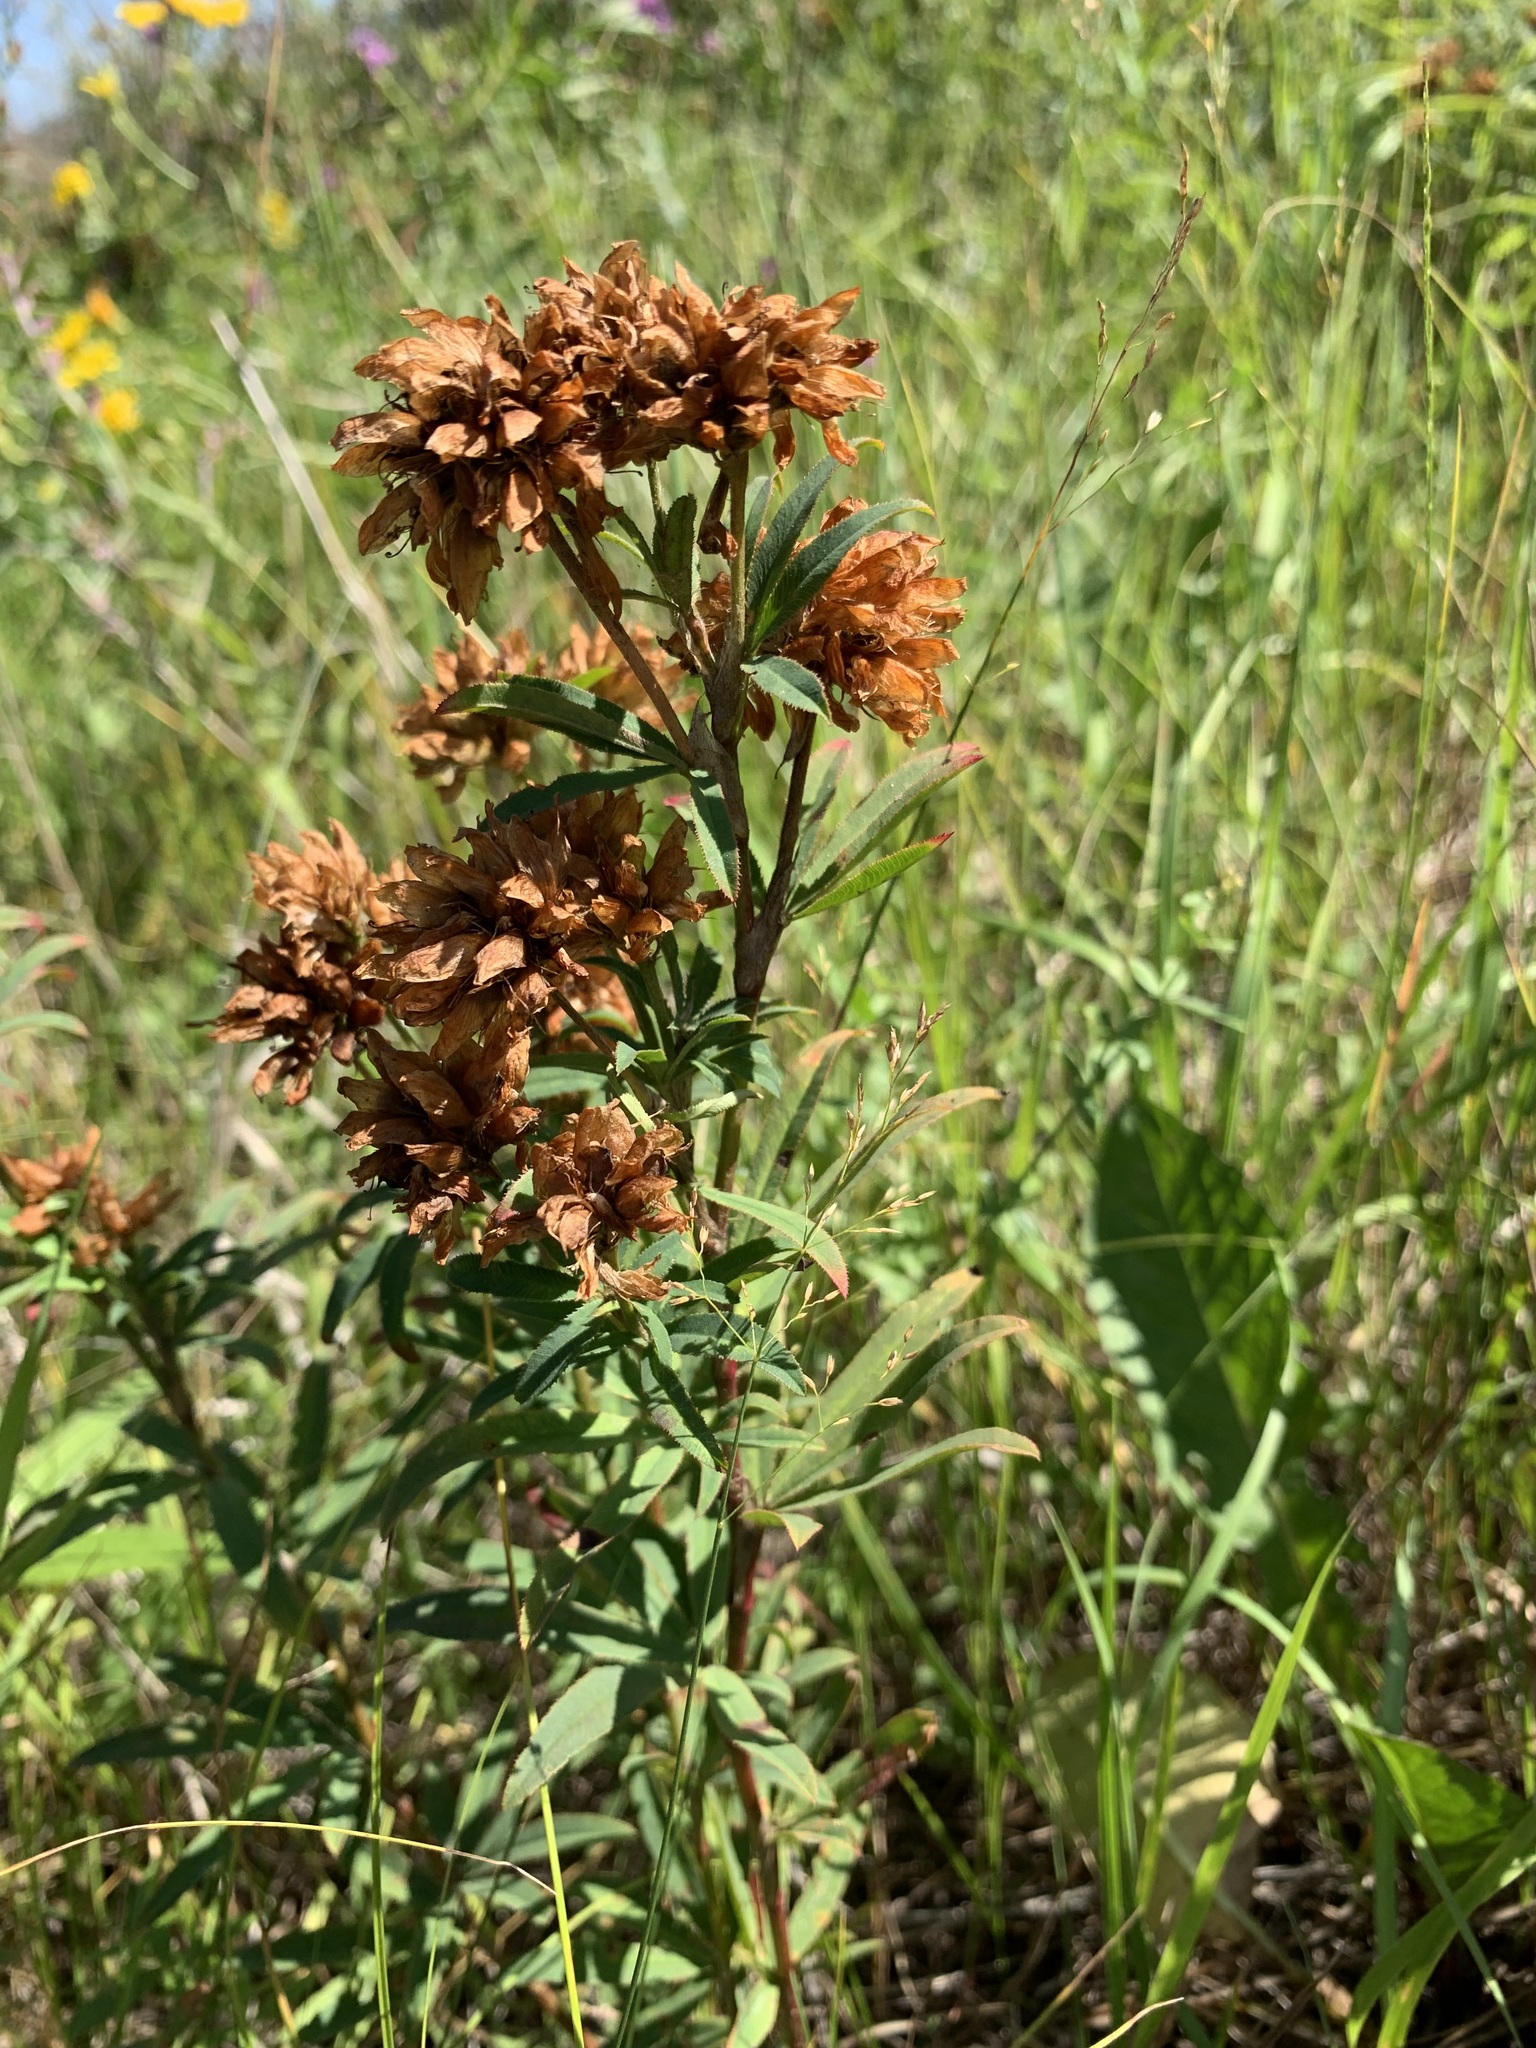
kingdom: Plantae
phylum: Tracheophyta
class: Magnoliopsida
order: Fabales
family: Fabaceae
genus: Trifolium
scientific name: Trifolium lupinaster
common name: Lupine clover
